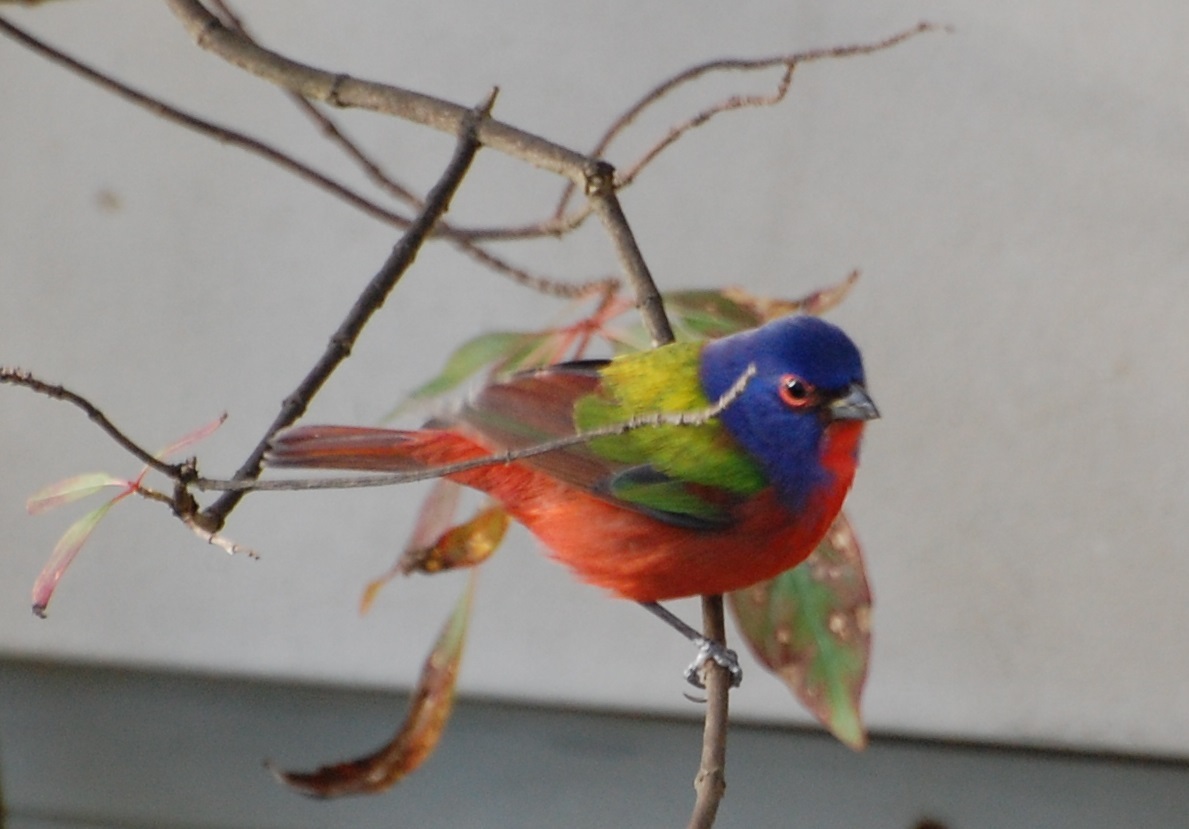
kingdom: Animalia
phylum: Chordata
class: Aves
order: Passeriformes
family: Cardinalidae
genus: Passerina
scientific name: Passerina ciris
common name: Painted bunting
